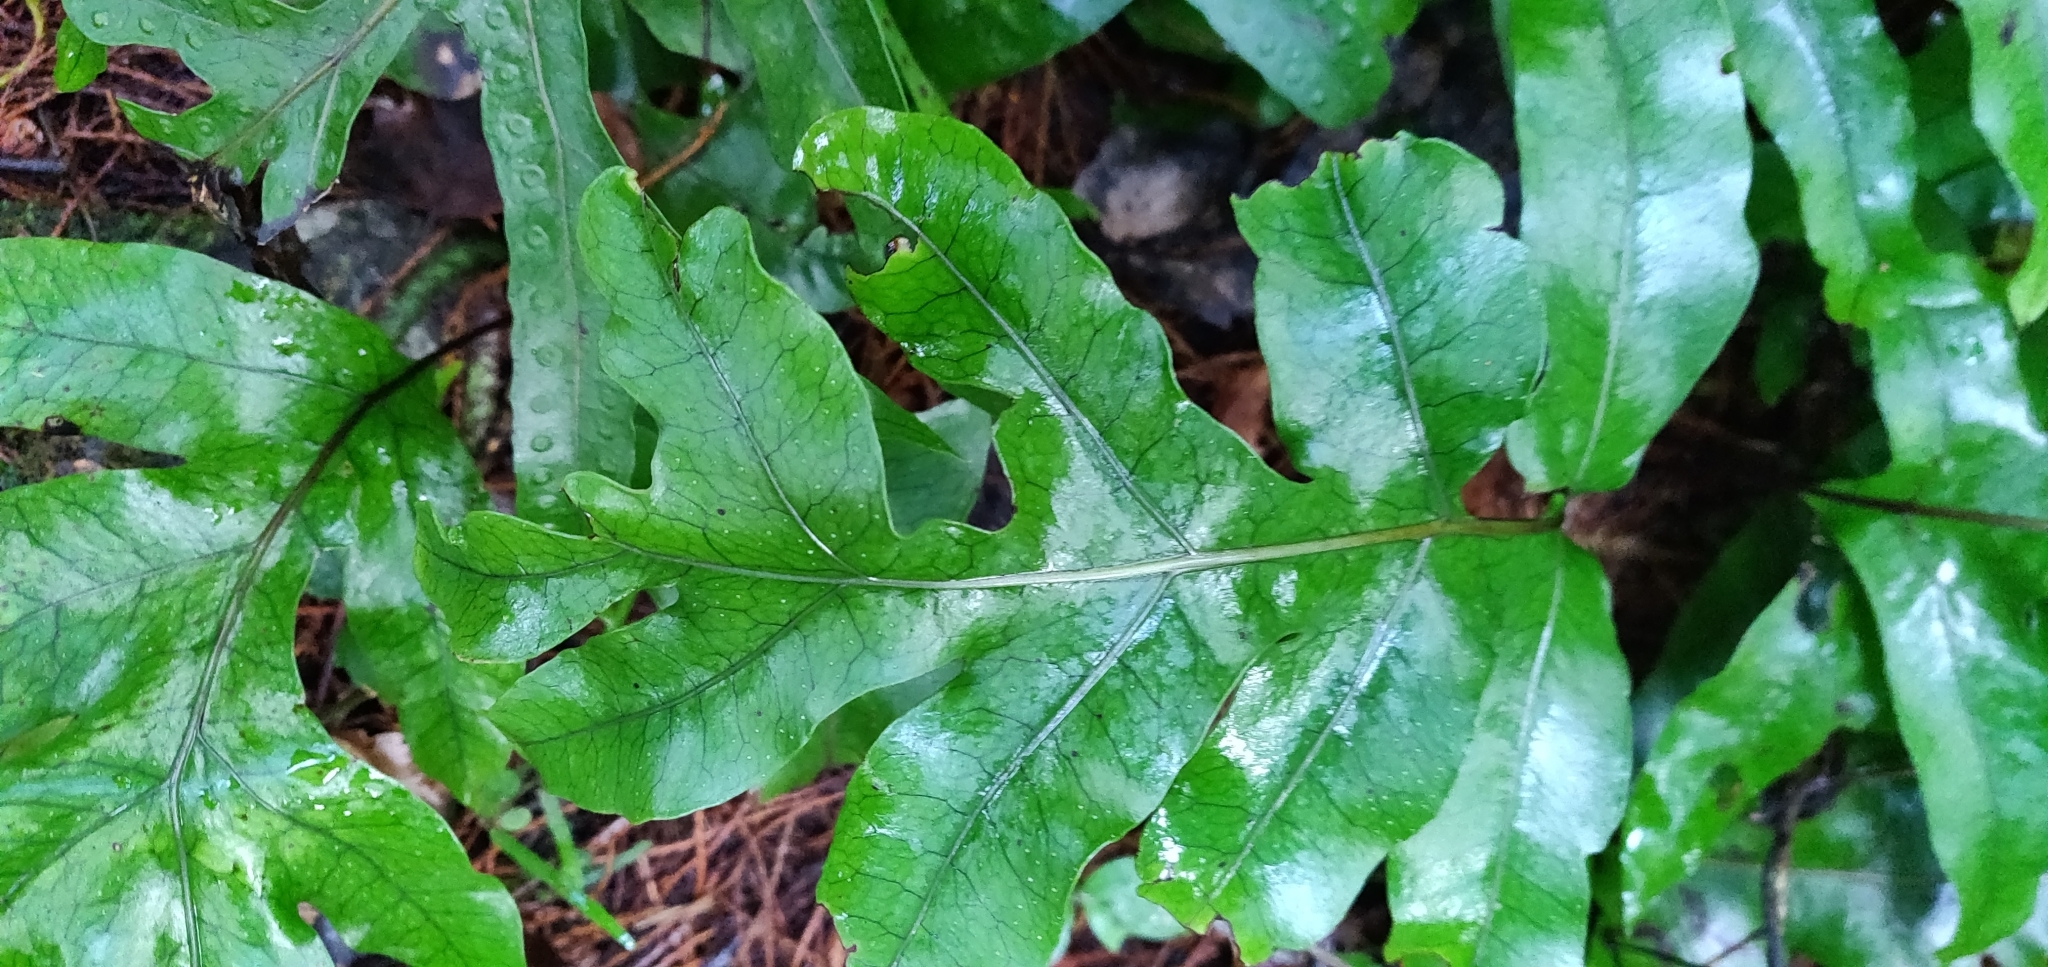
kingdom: Plantae
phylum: Tracheophyta
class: Polypodiopsida
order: Polypodiales
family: Polypodiaceae
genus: Lecanopteris
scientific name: Lecanopteris pustulata
